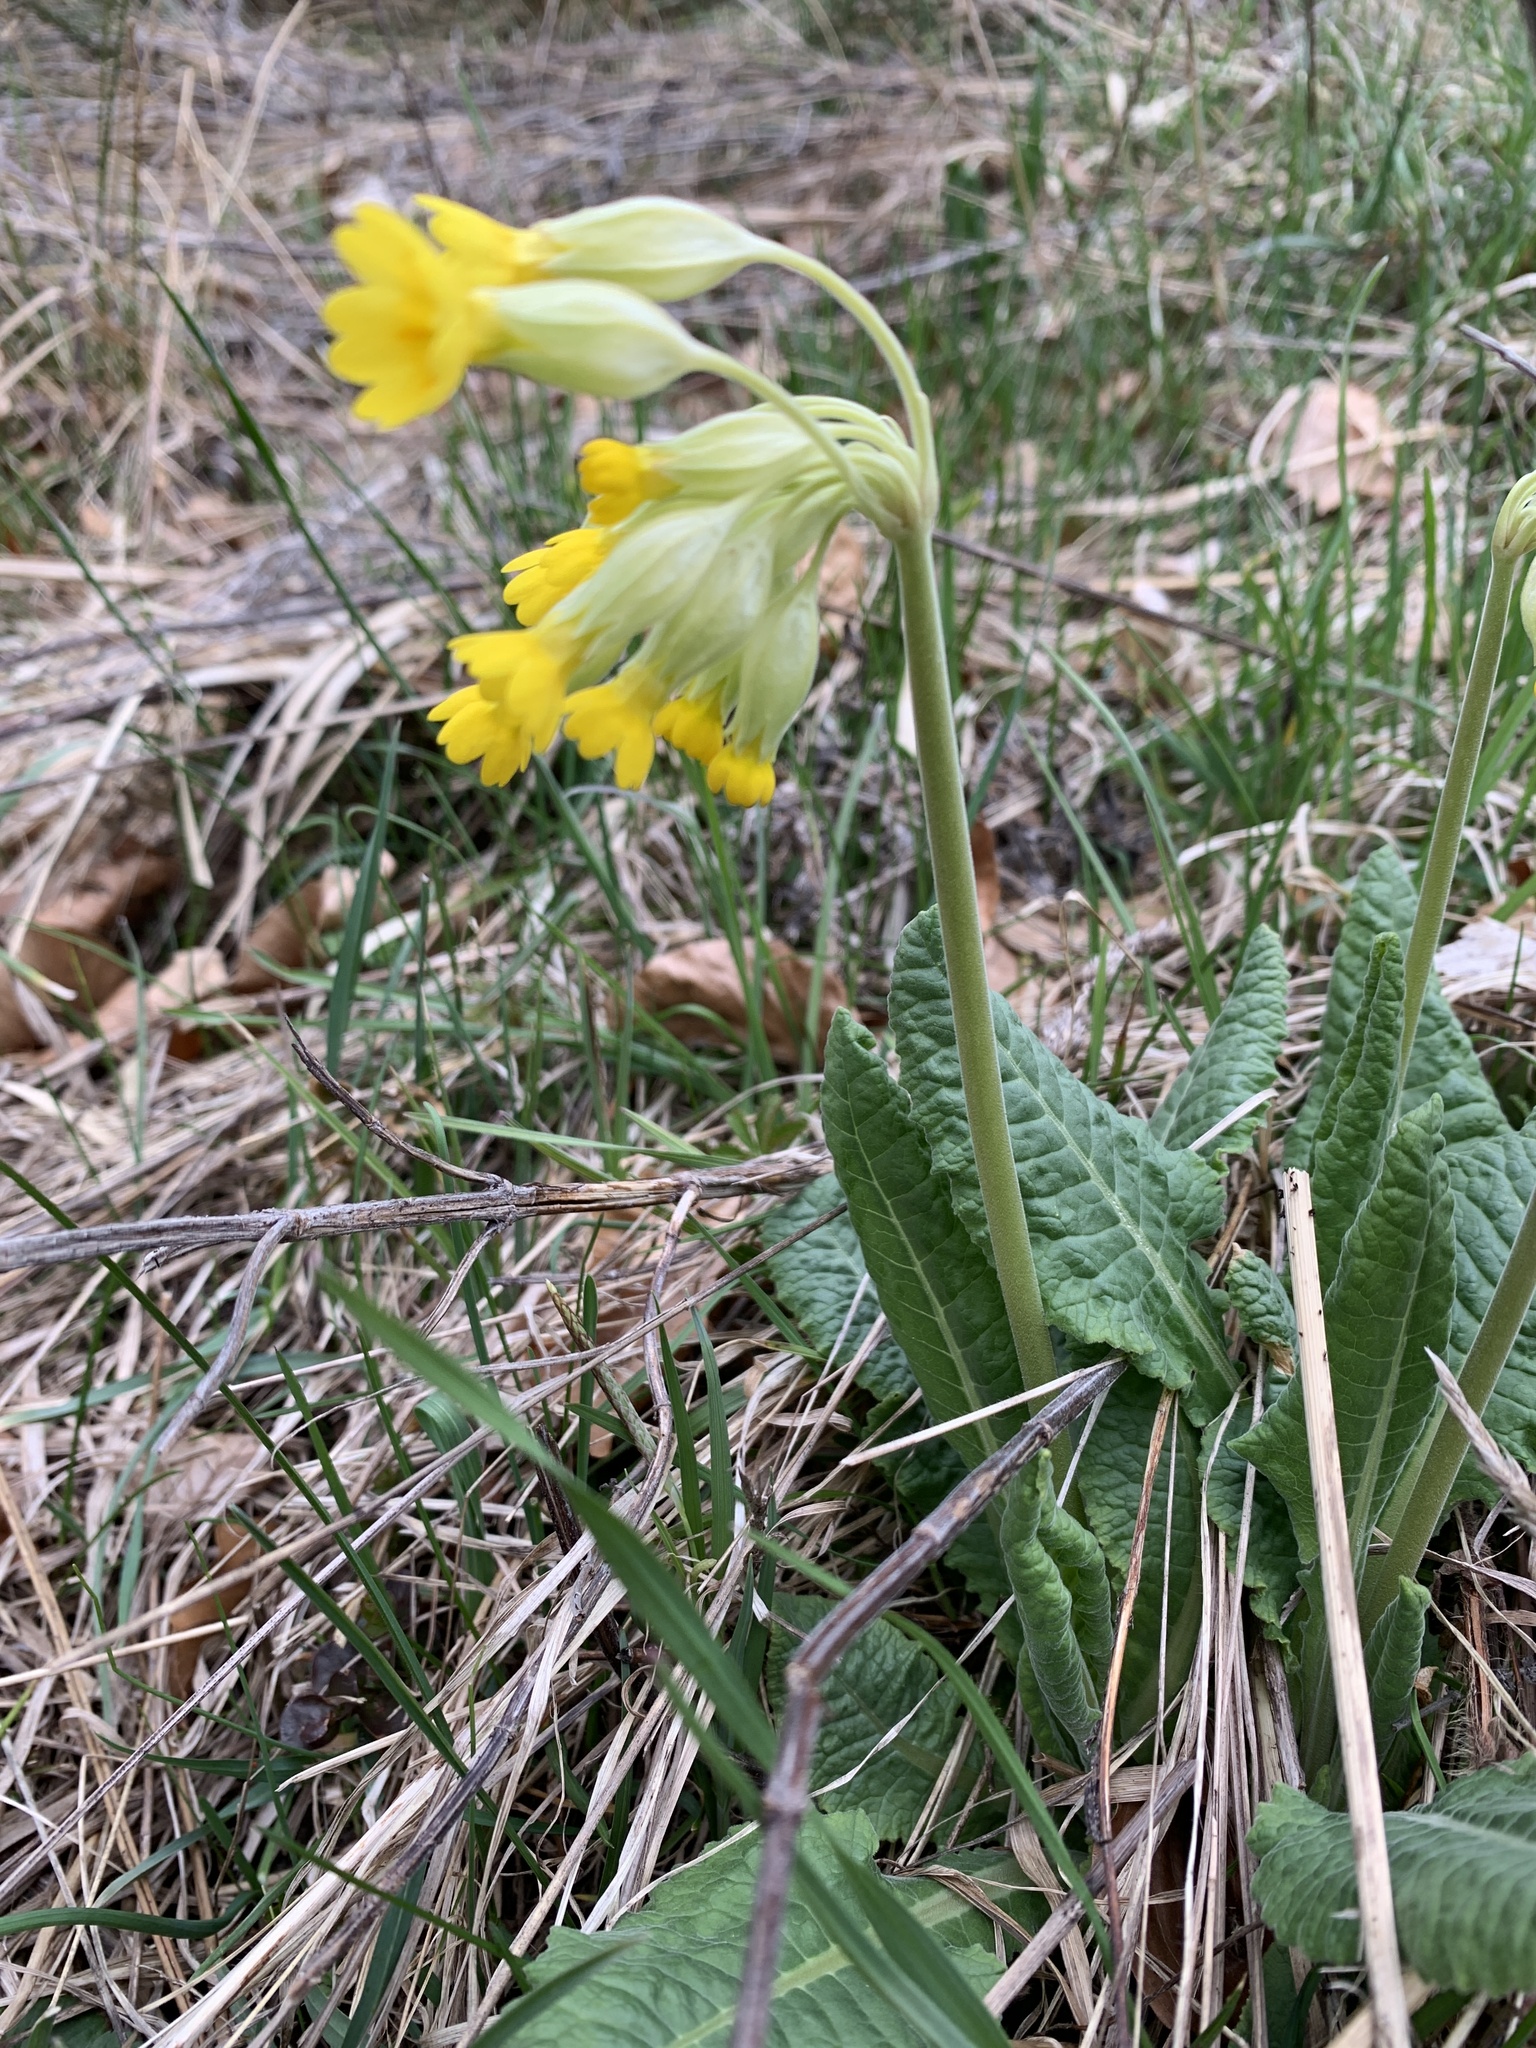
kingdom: Plantae
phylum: Tracheophyta
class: Magnoliopsida
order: Ericales
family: Primulaceae
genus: Primula
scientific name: Primula veris
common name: Cowslip
